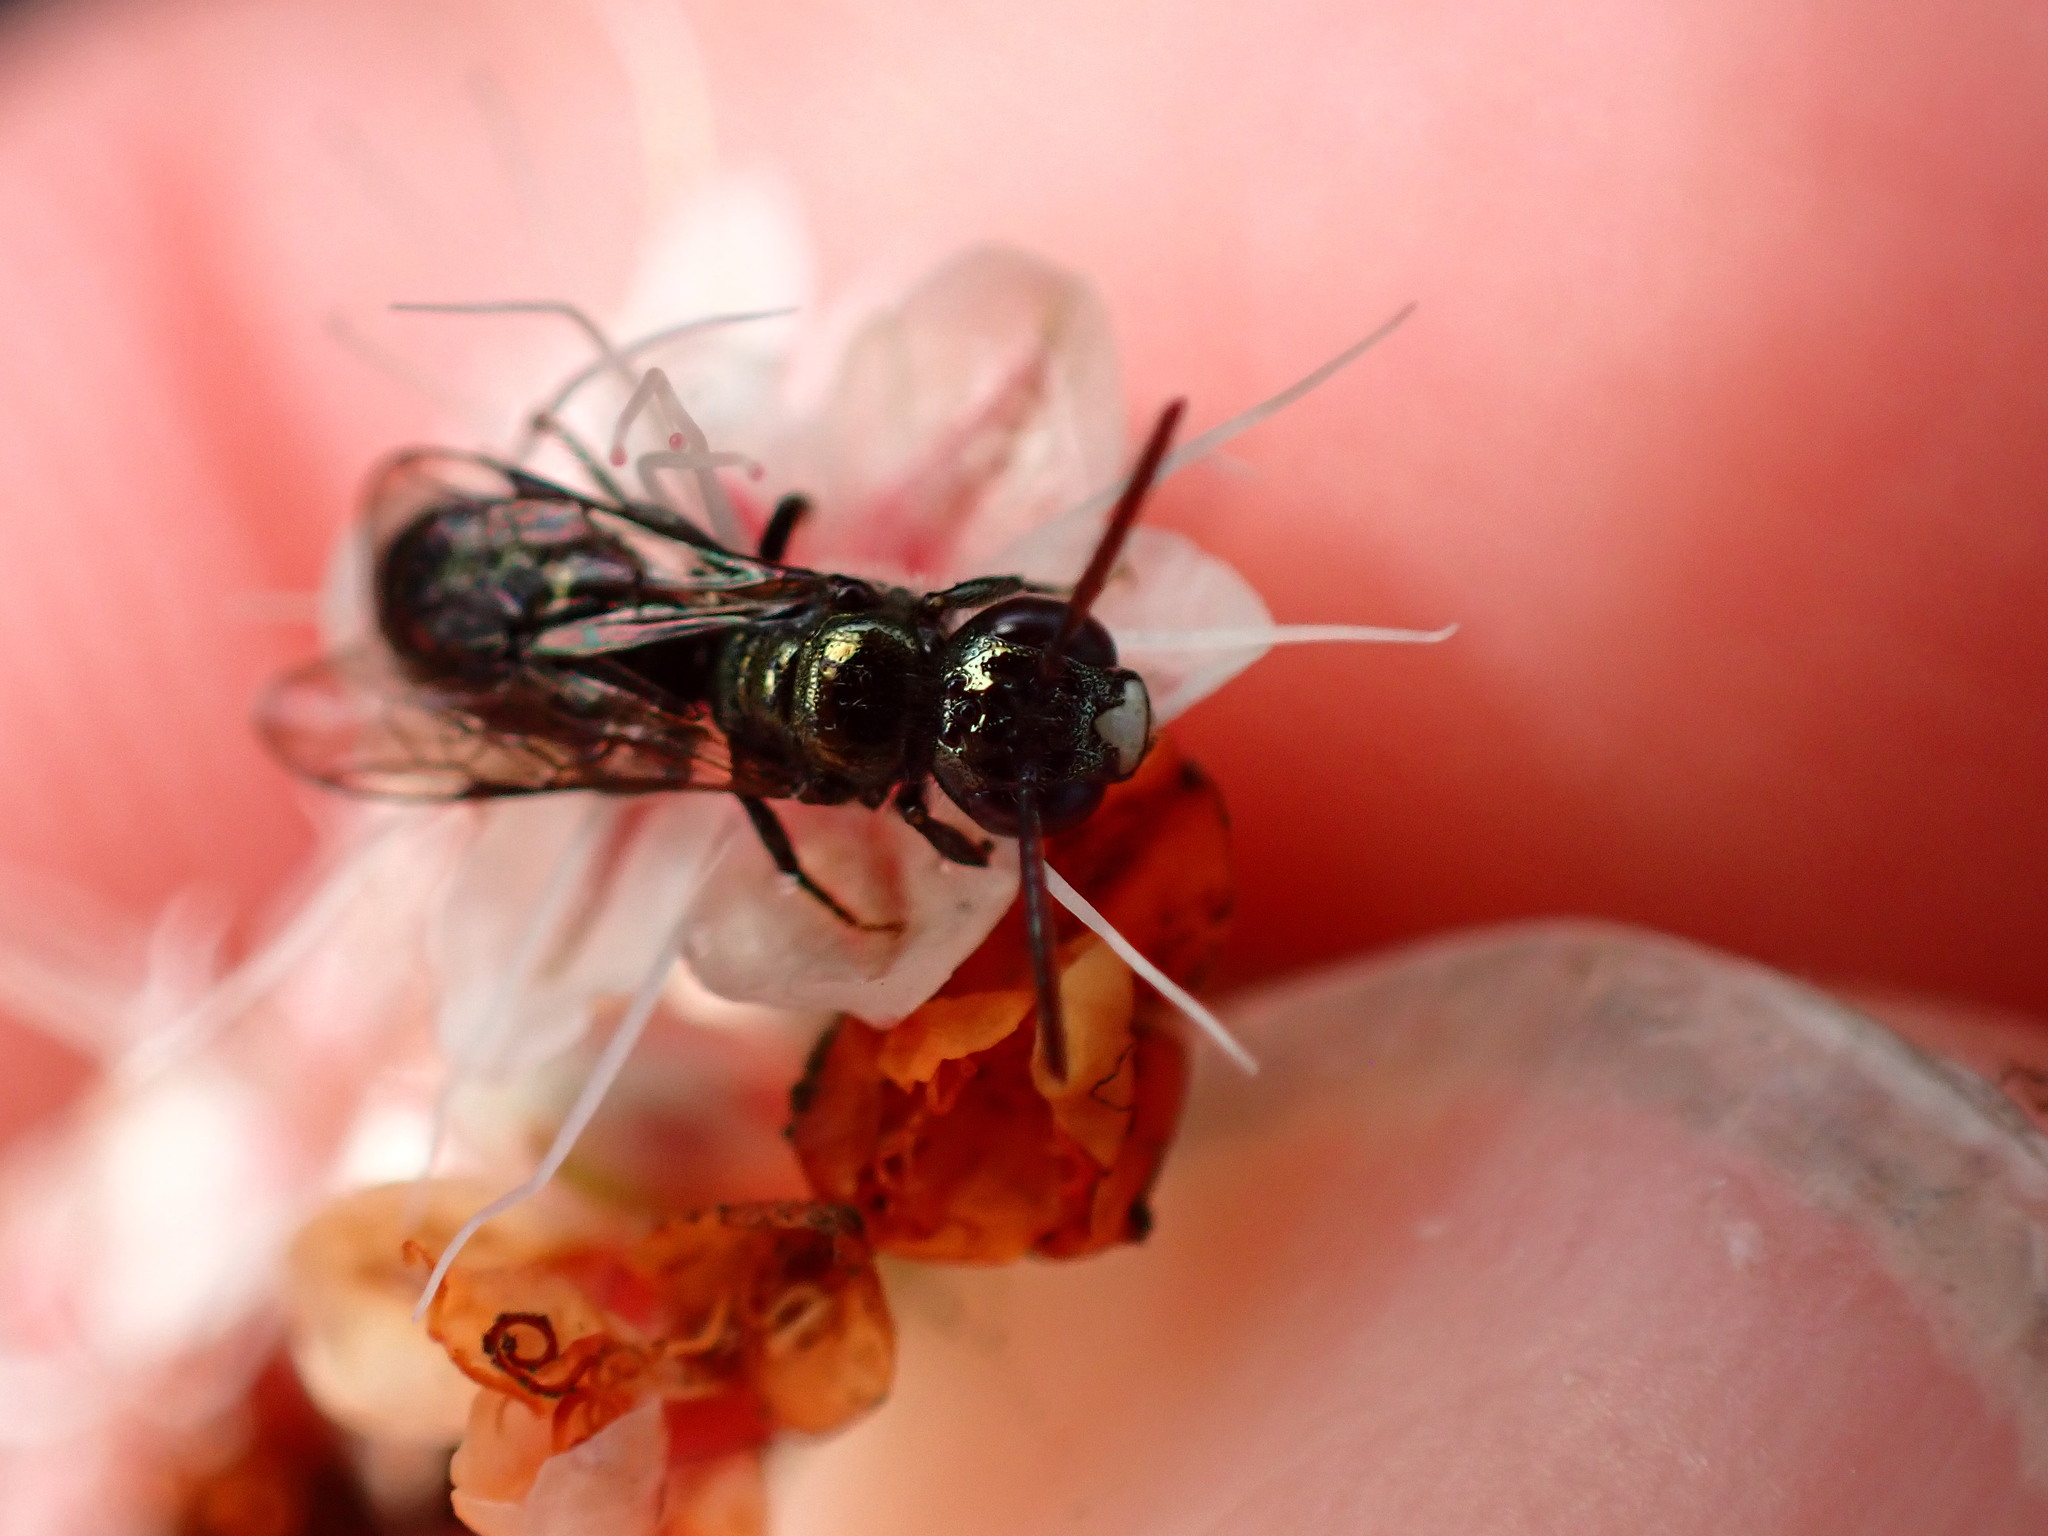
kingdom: Animalia
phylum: Arthropoda
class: Insecta
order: Hymenoptera
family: Apidae
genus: Ceratina
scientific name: Ceratina acantha
